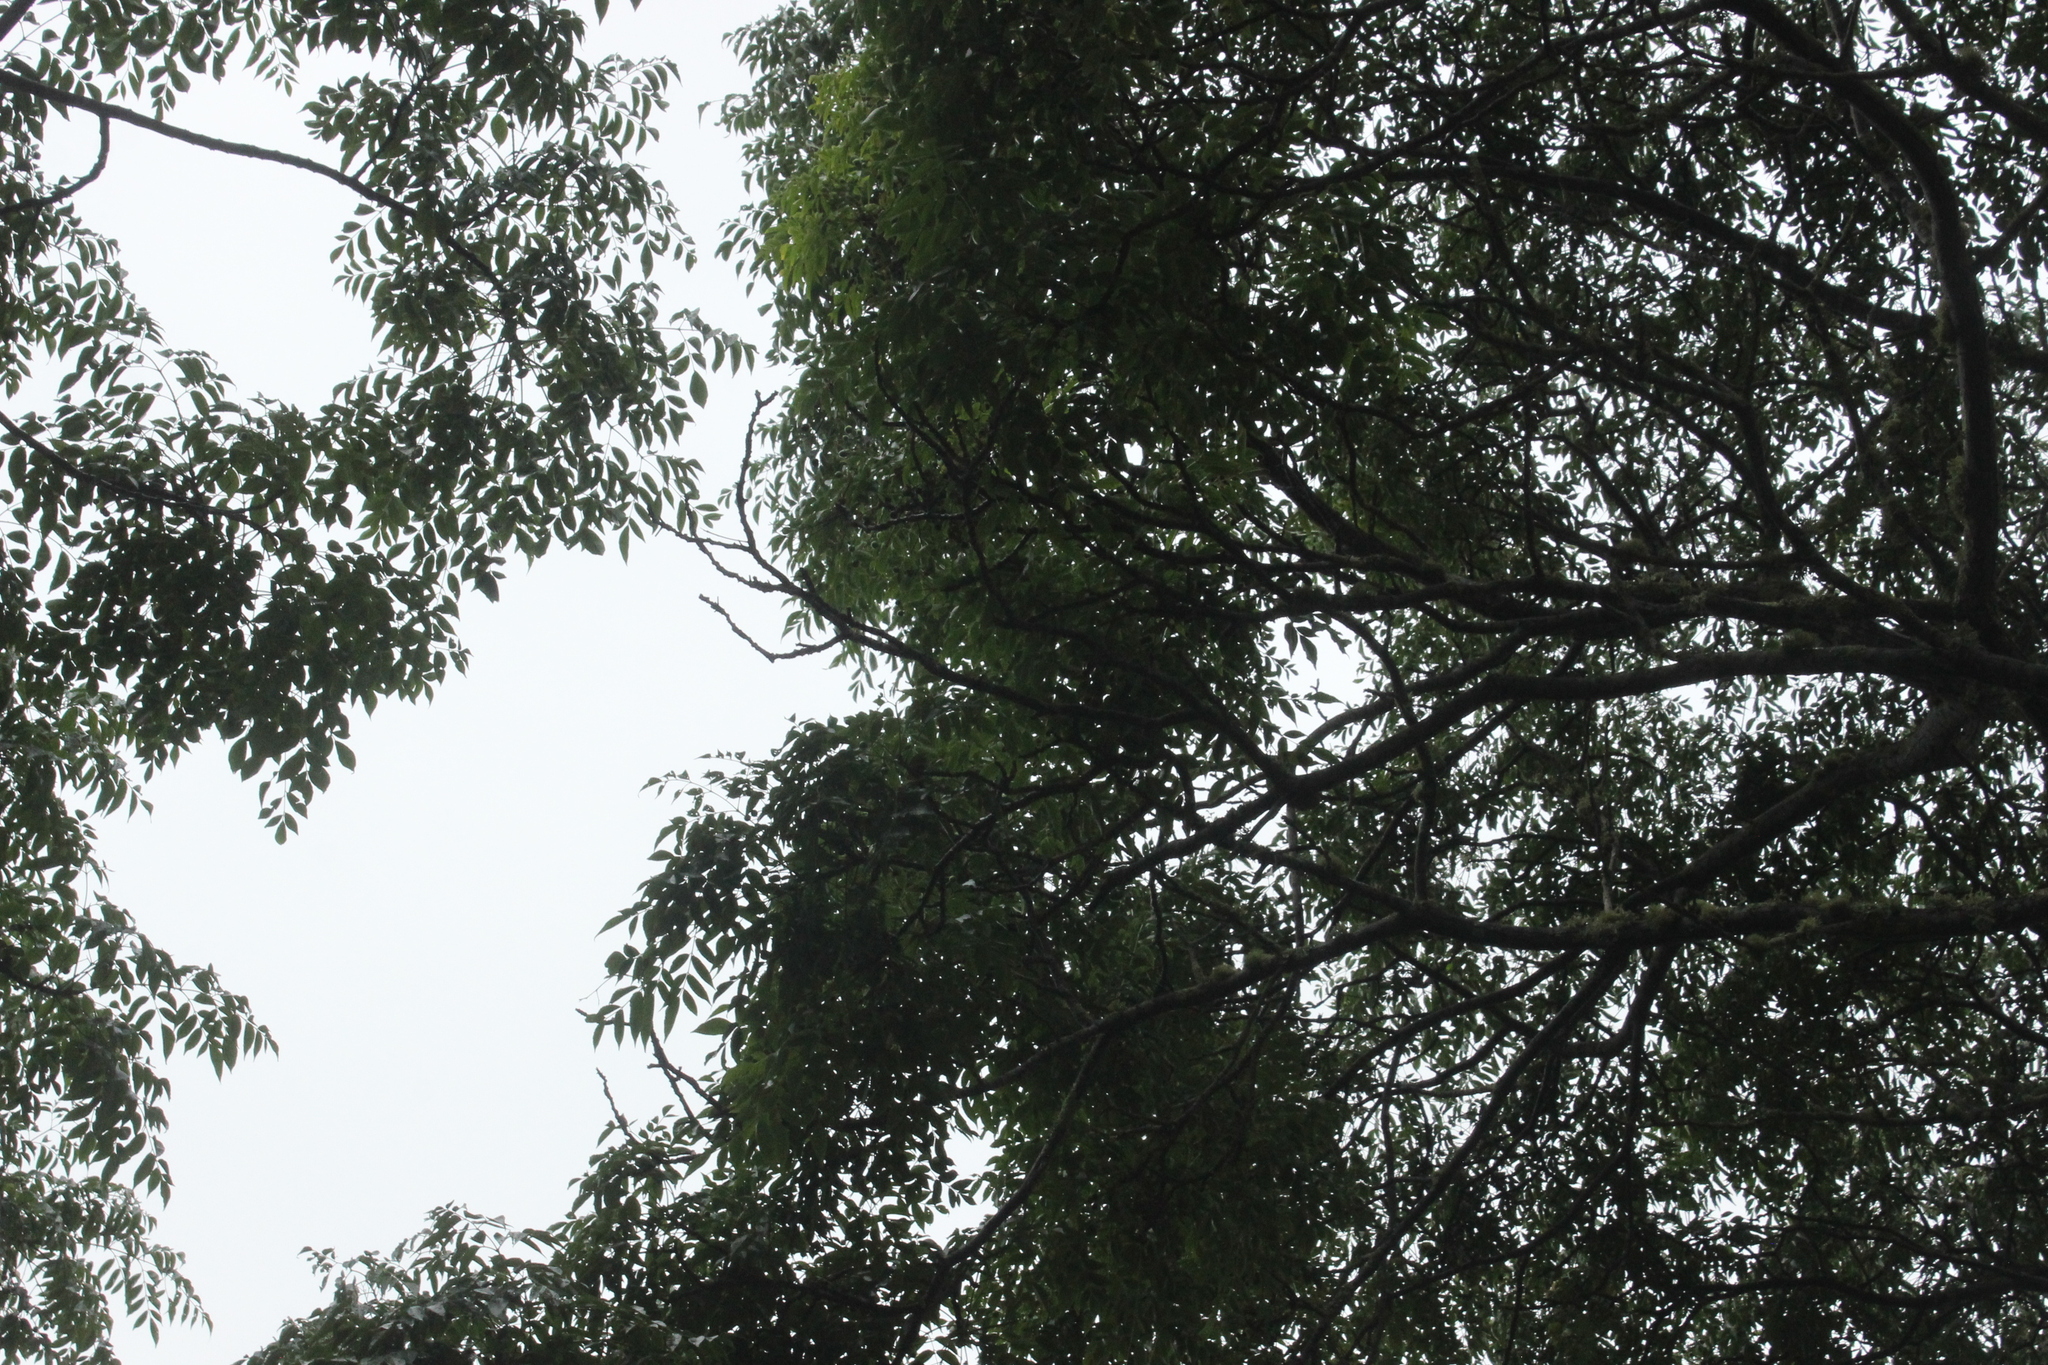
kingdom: Plantae
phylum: Tracheophyta
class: Magnoliopsida
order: Sapindales
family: Meliaceae
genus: Melia
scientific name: Melia azedarach
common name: Chinaberrytree
